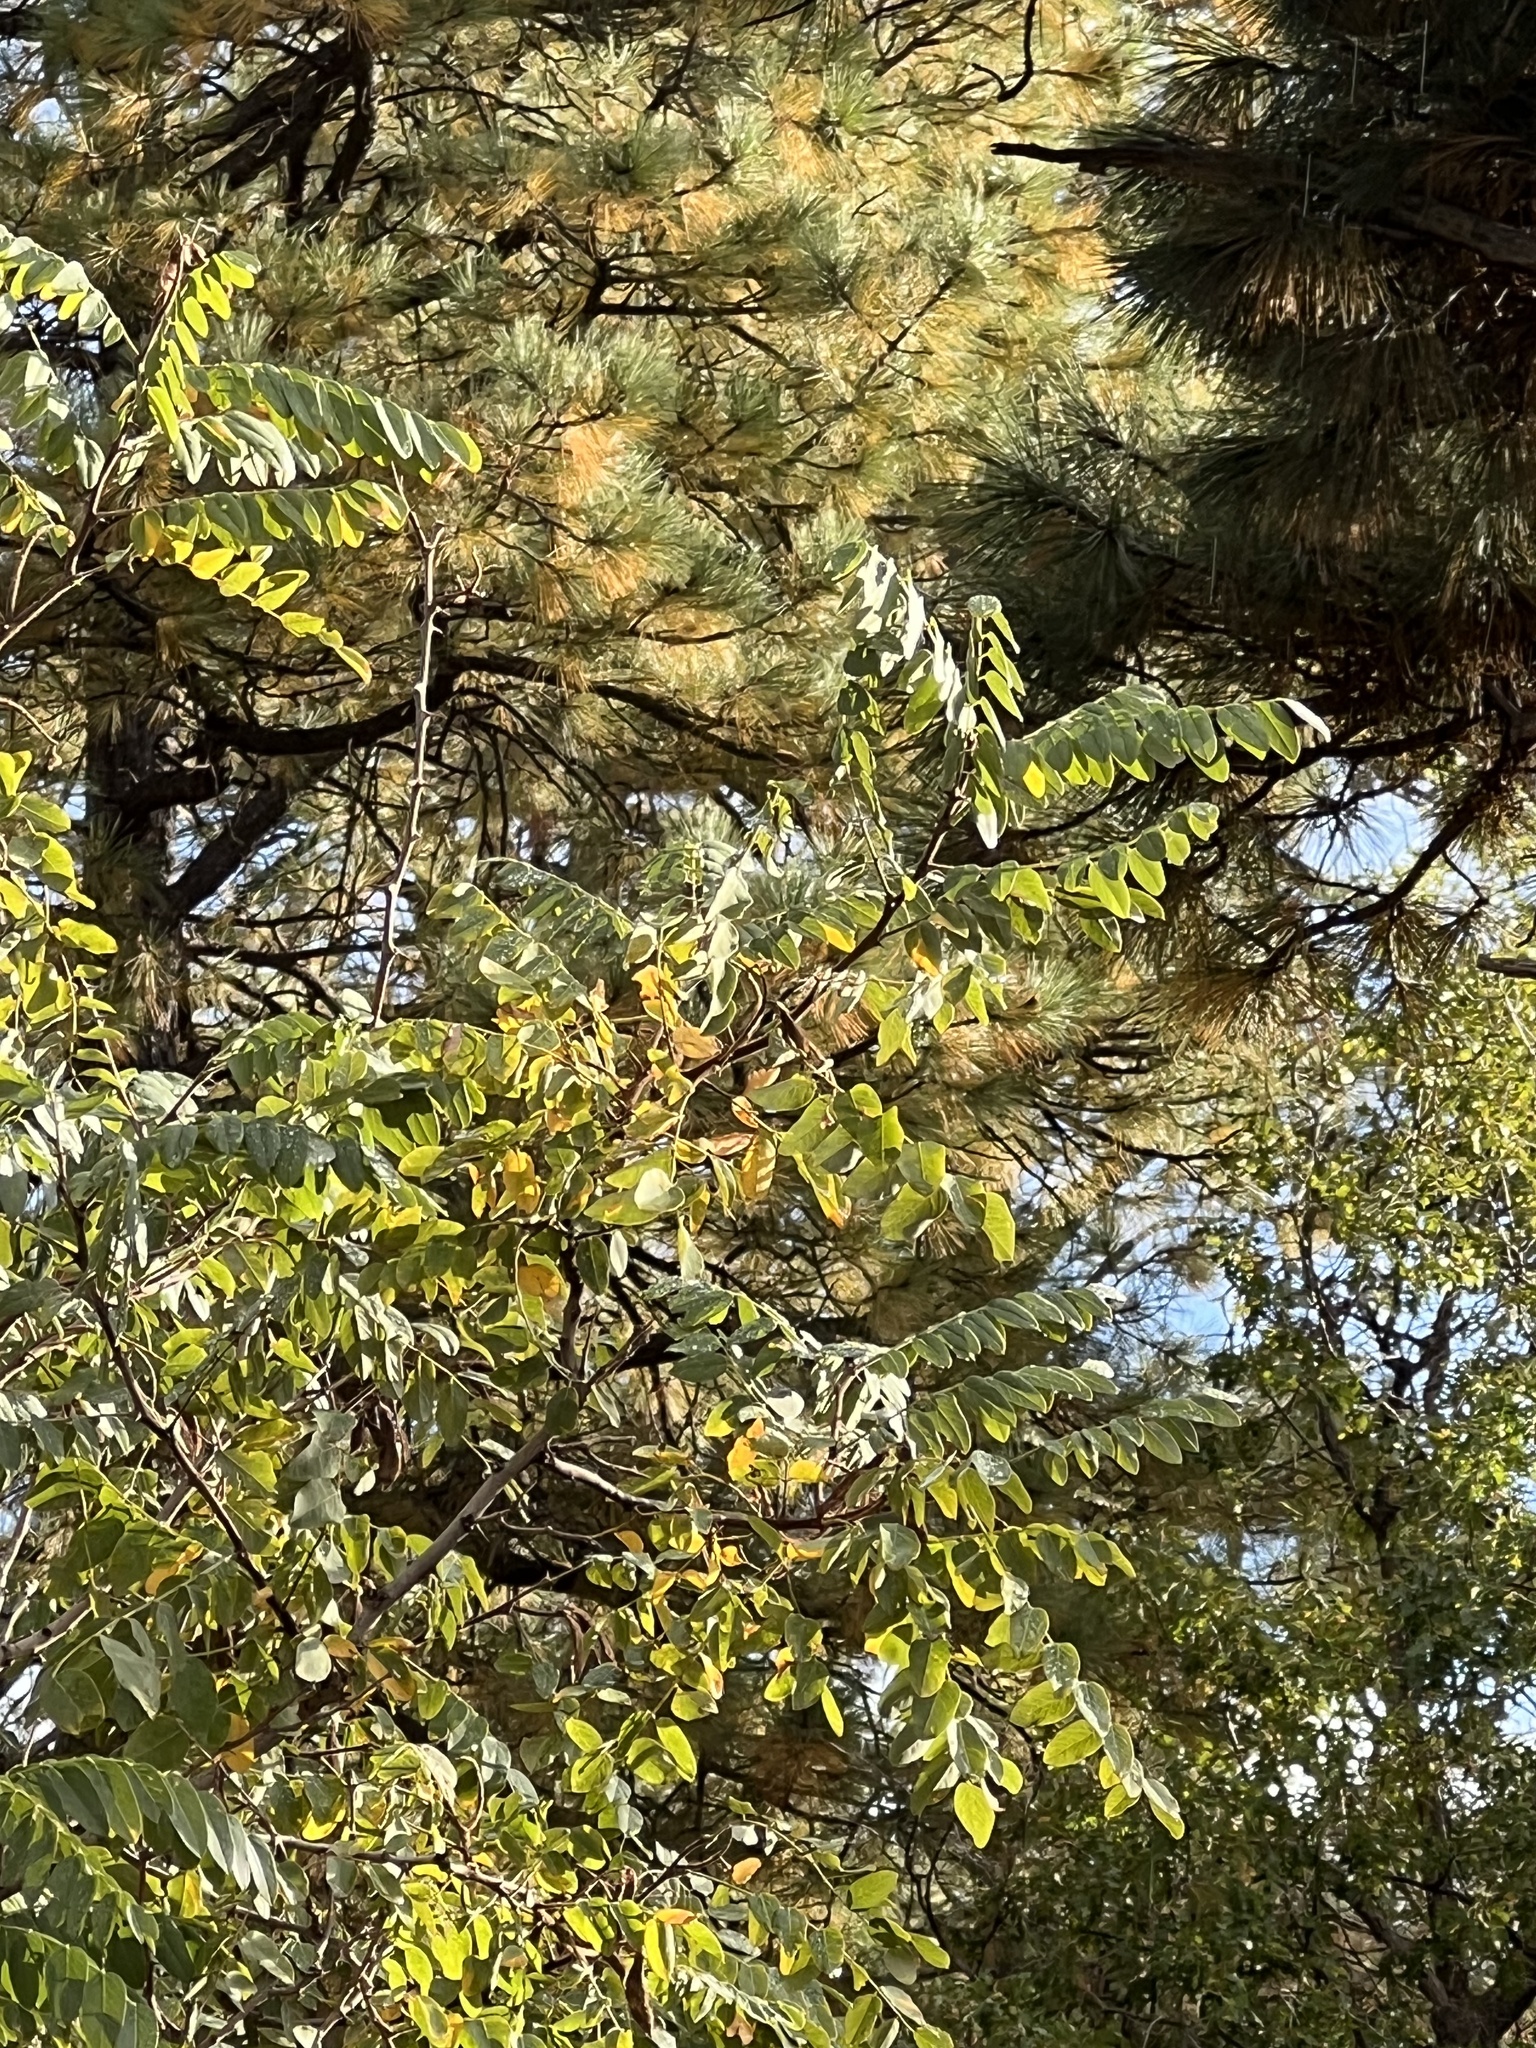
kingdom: Plantae
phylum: Tracheophyta
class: Magnoliopsida
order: Fabales
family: Fabaceae
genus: Robinia
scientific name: Robinia neomexicana
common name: New mexico locust
